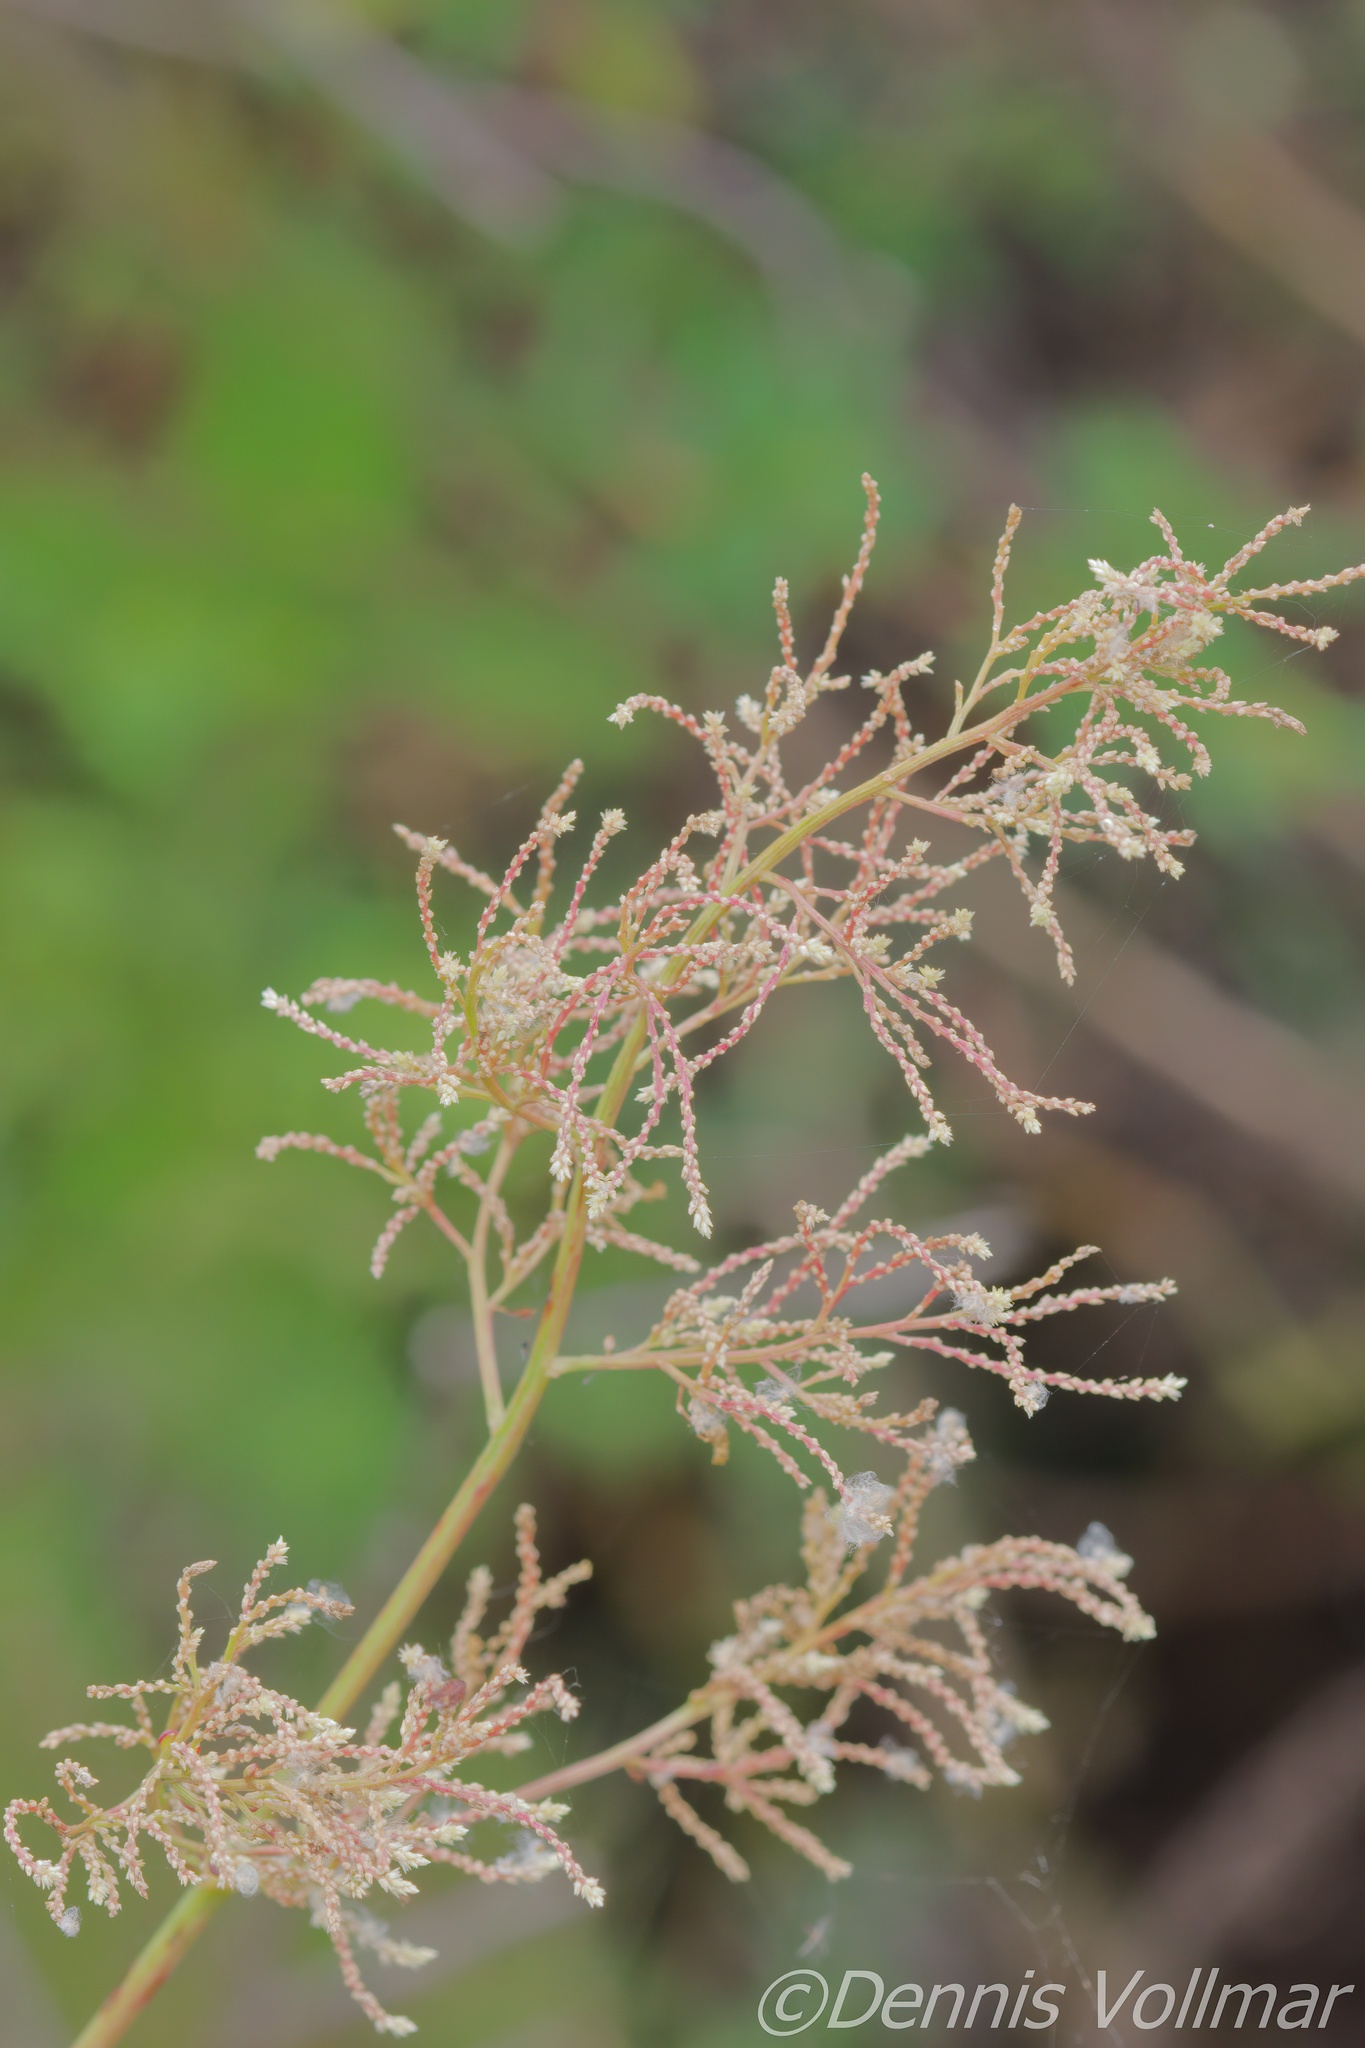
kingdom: Plantae
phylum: Tracheophyta
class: Magnoliopsida
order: Caryophyllales
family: Amaranthaceae
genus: Iresine
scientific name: Iresine diffusa
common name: Juba's-bush
